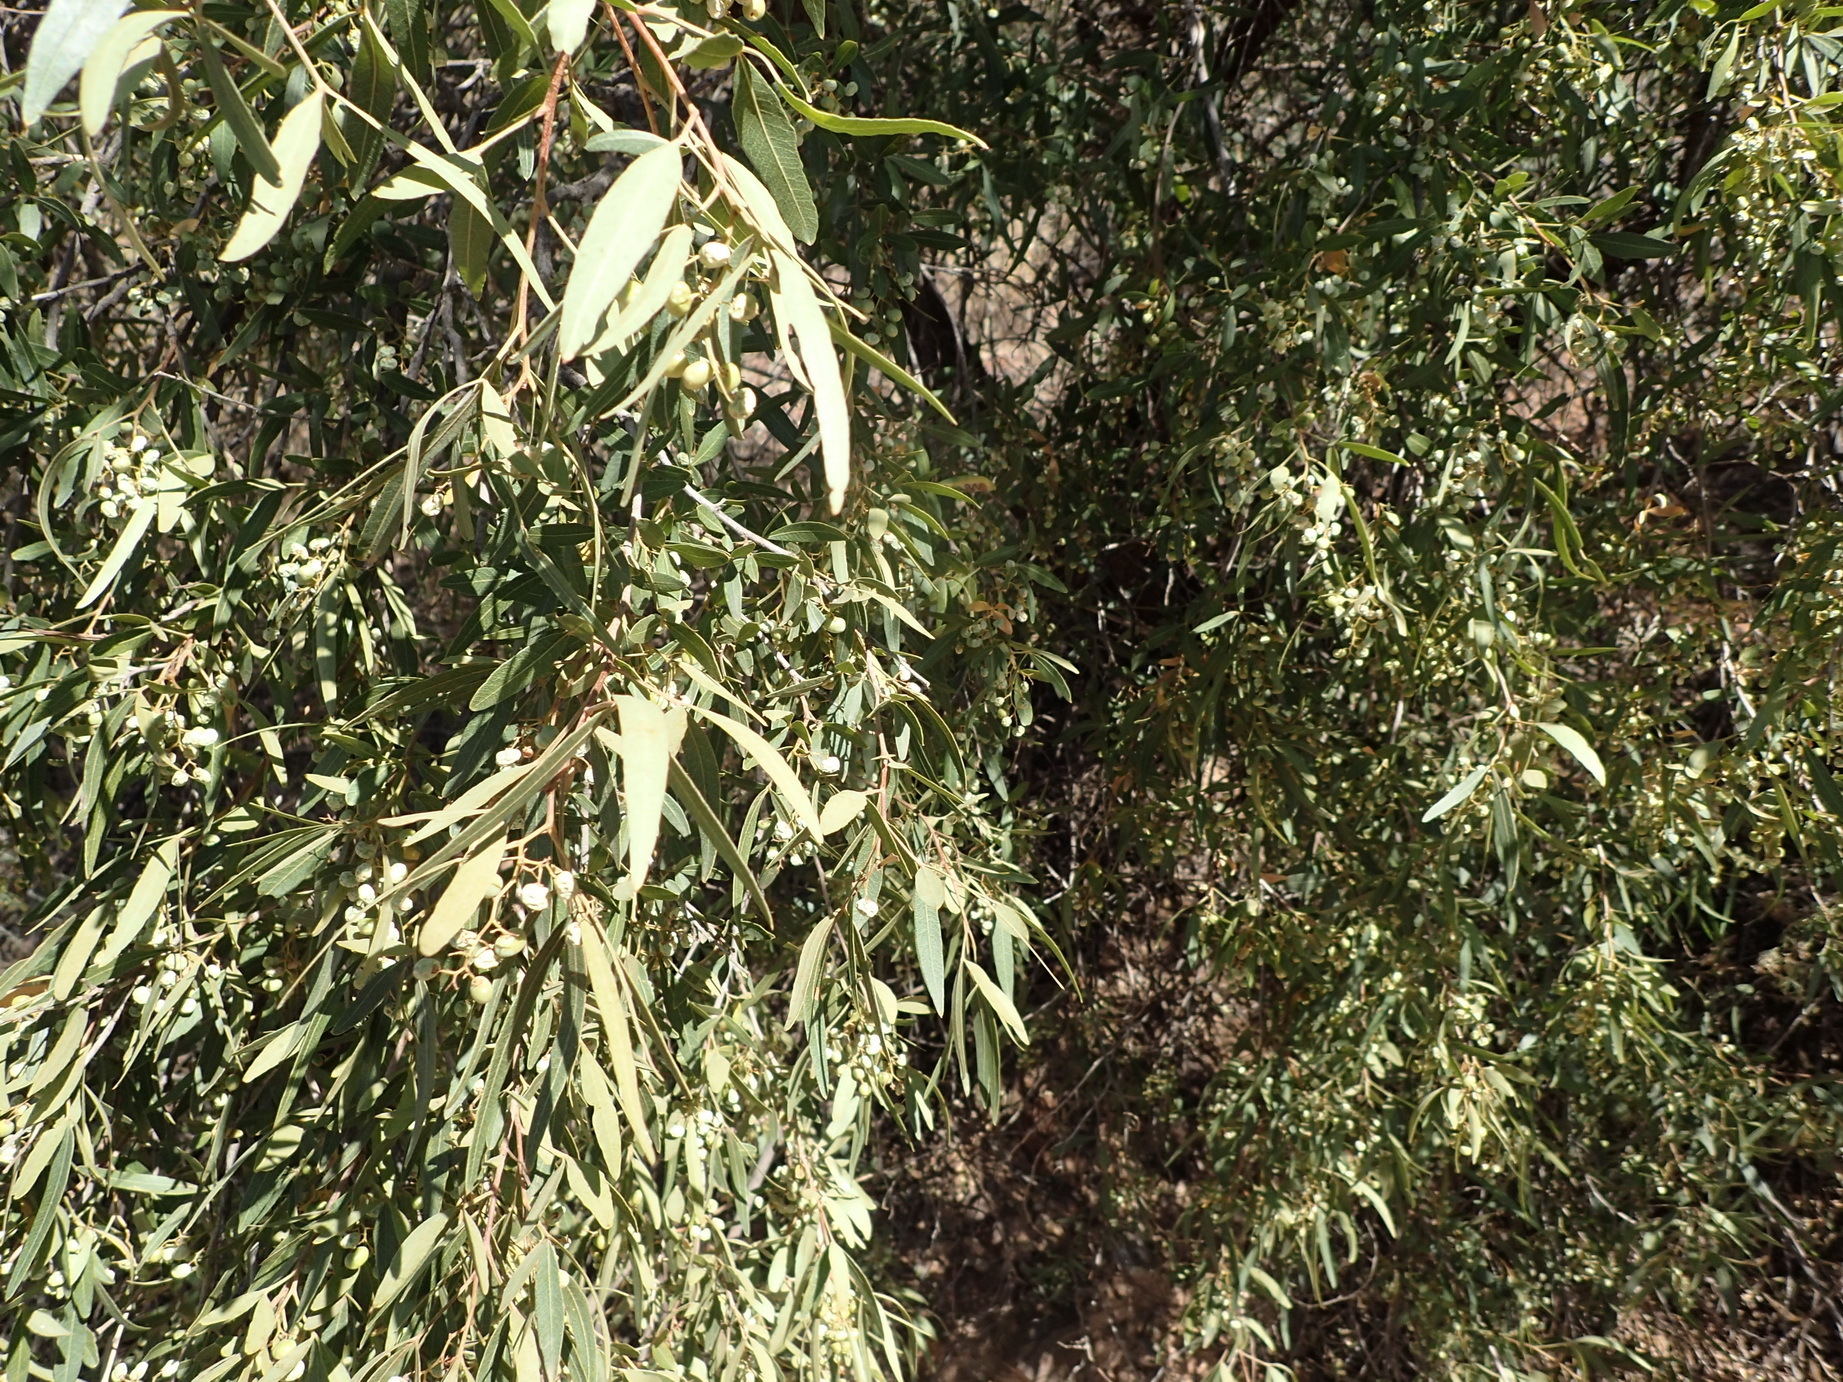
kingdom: Plantae
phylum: Tracheophyta
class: Magnoliopsida
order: Sapindales
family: Anacardiaceae
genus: Searsia
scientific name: Searsia pendulina
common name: White karee
